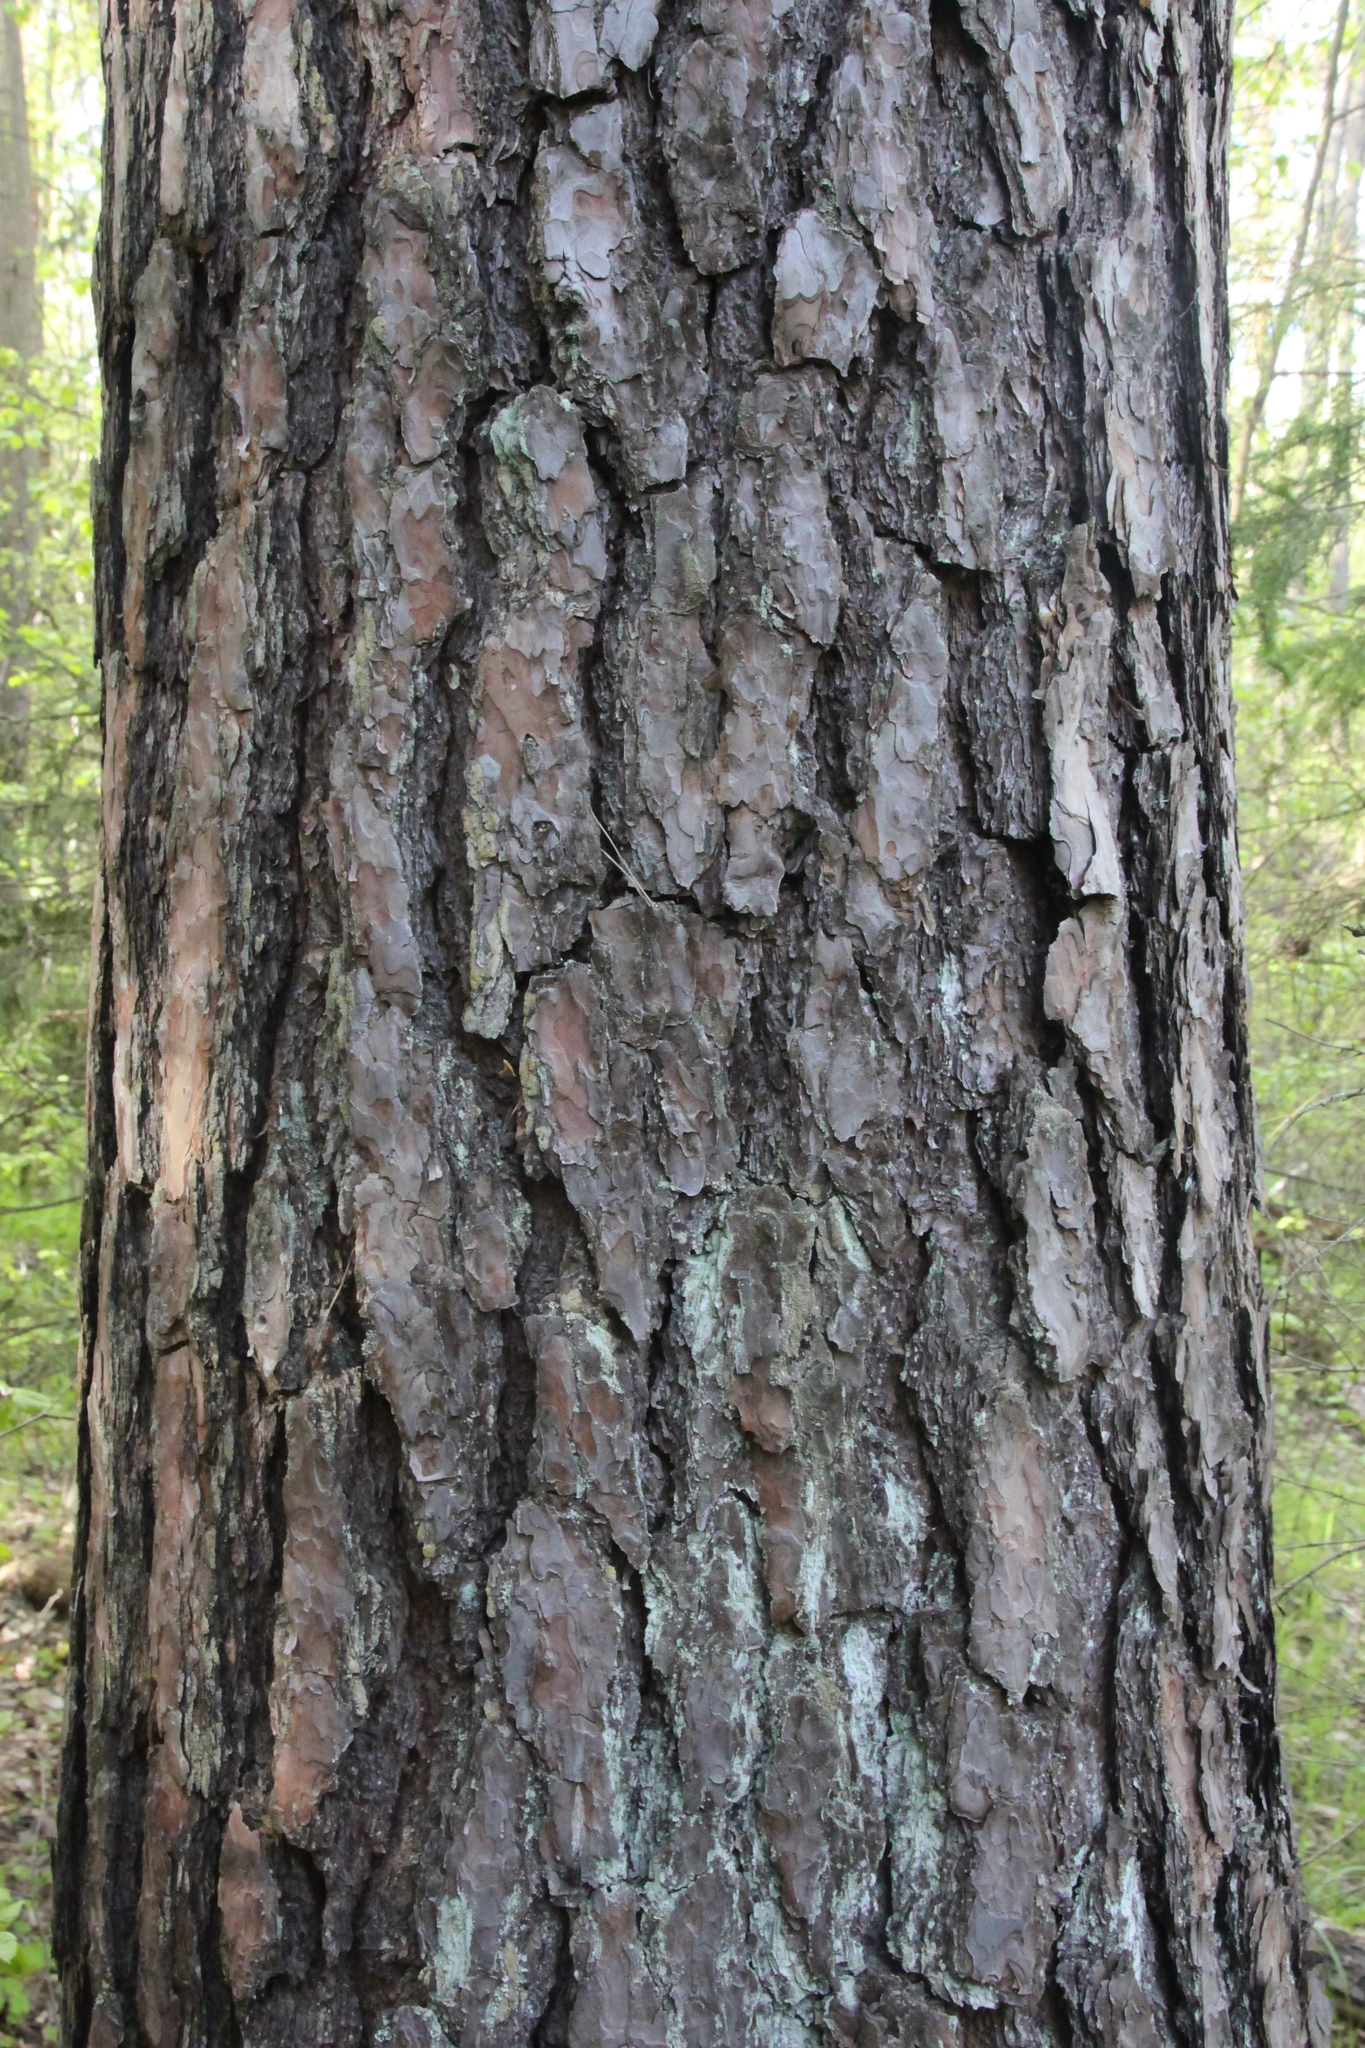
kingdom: Plantae
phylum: Tracheophyta
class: Pinopsida
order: Pinales
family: Pinaceae
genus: Pinus
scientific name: Pinus sylvestris
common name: Scots pine
